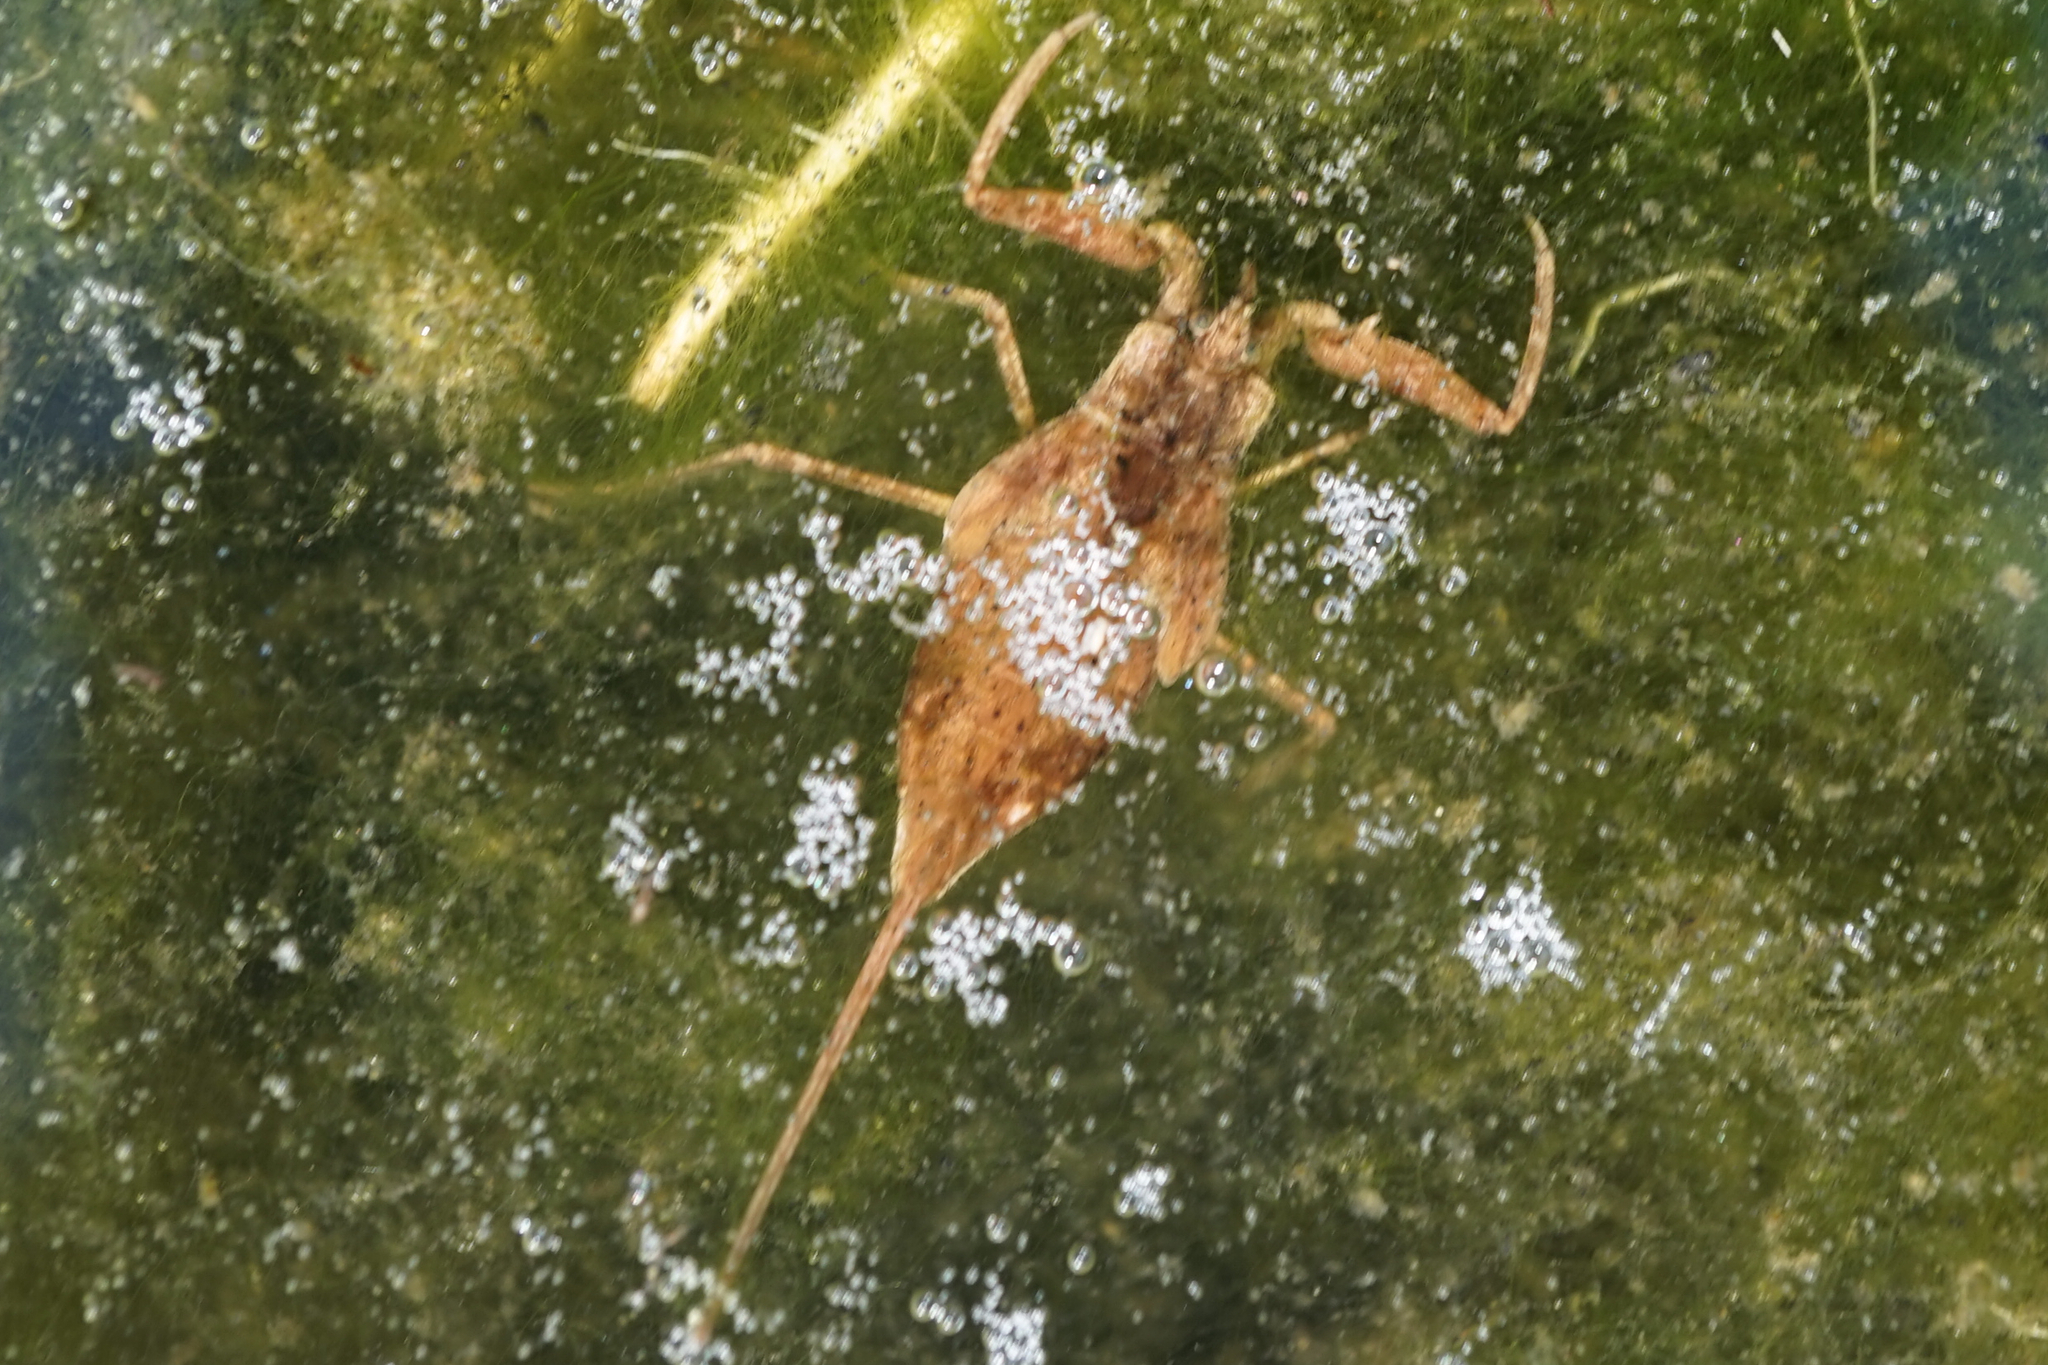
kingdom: Animalia
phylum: Arthropoda
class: Insecta
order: Hemiptera
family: Nepidae
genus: Laccotrephes
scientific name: Laccotrephes japonensis
